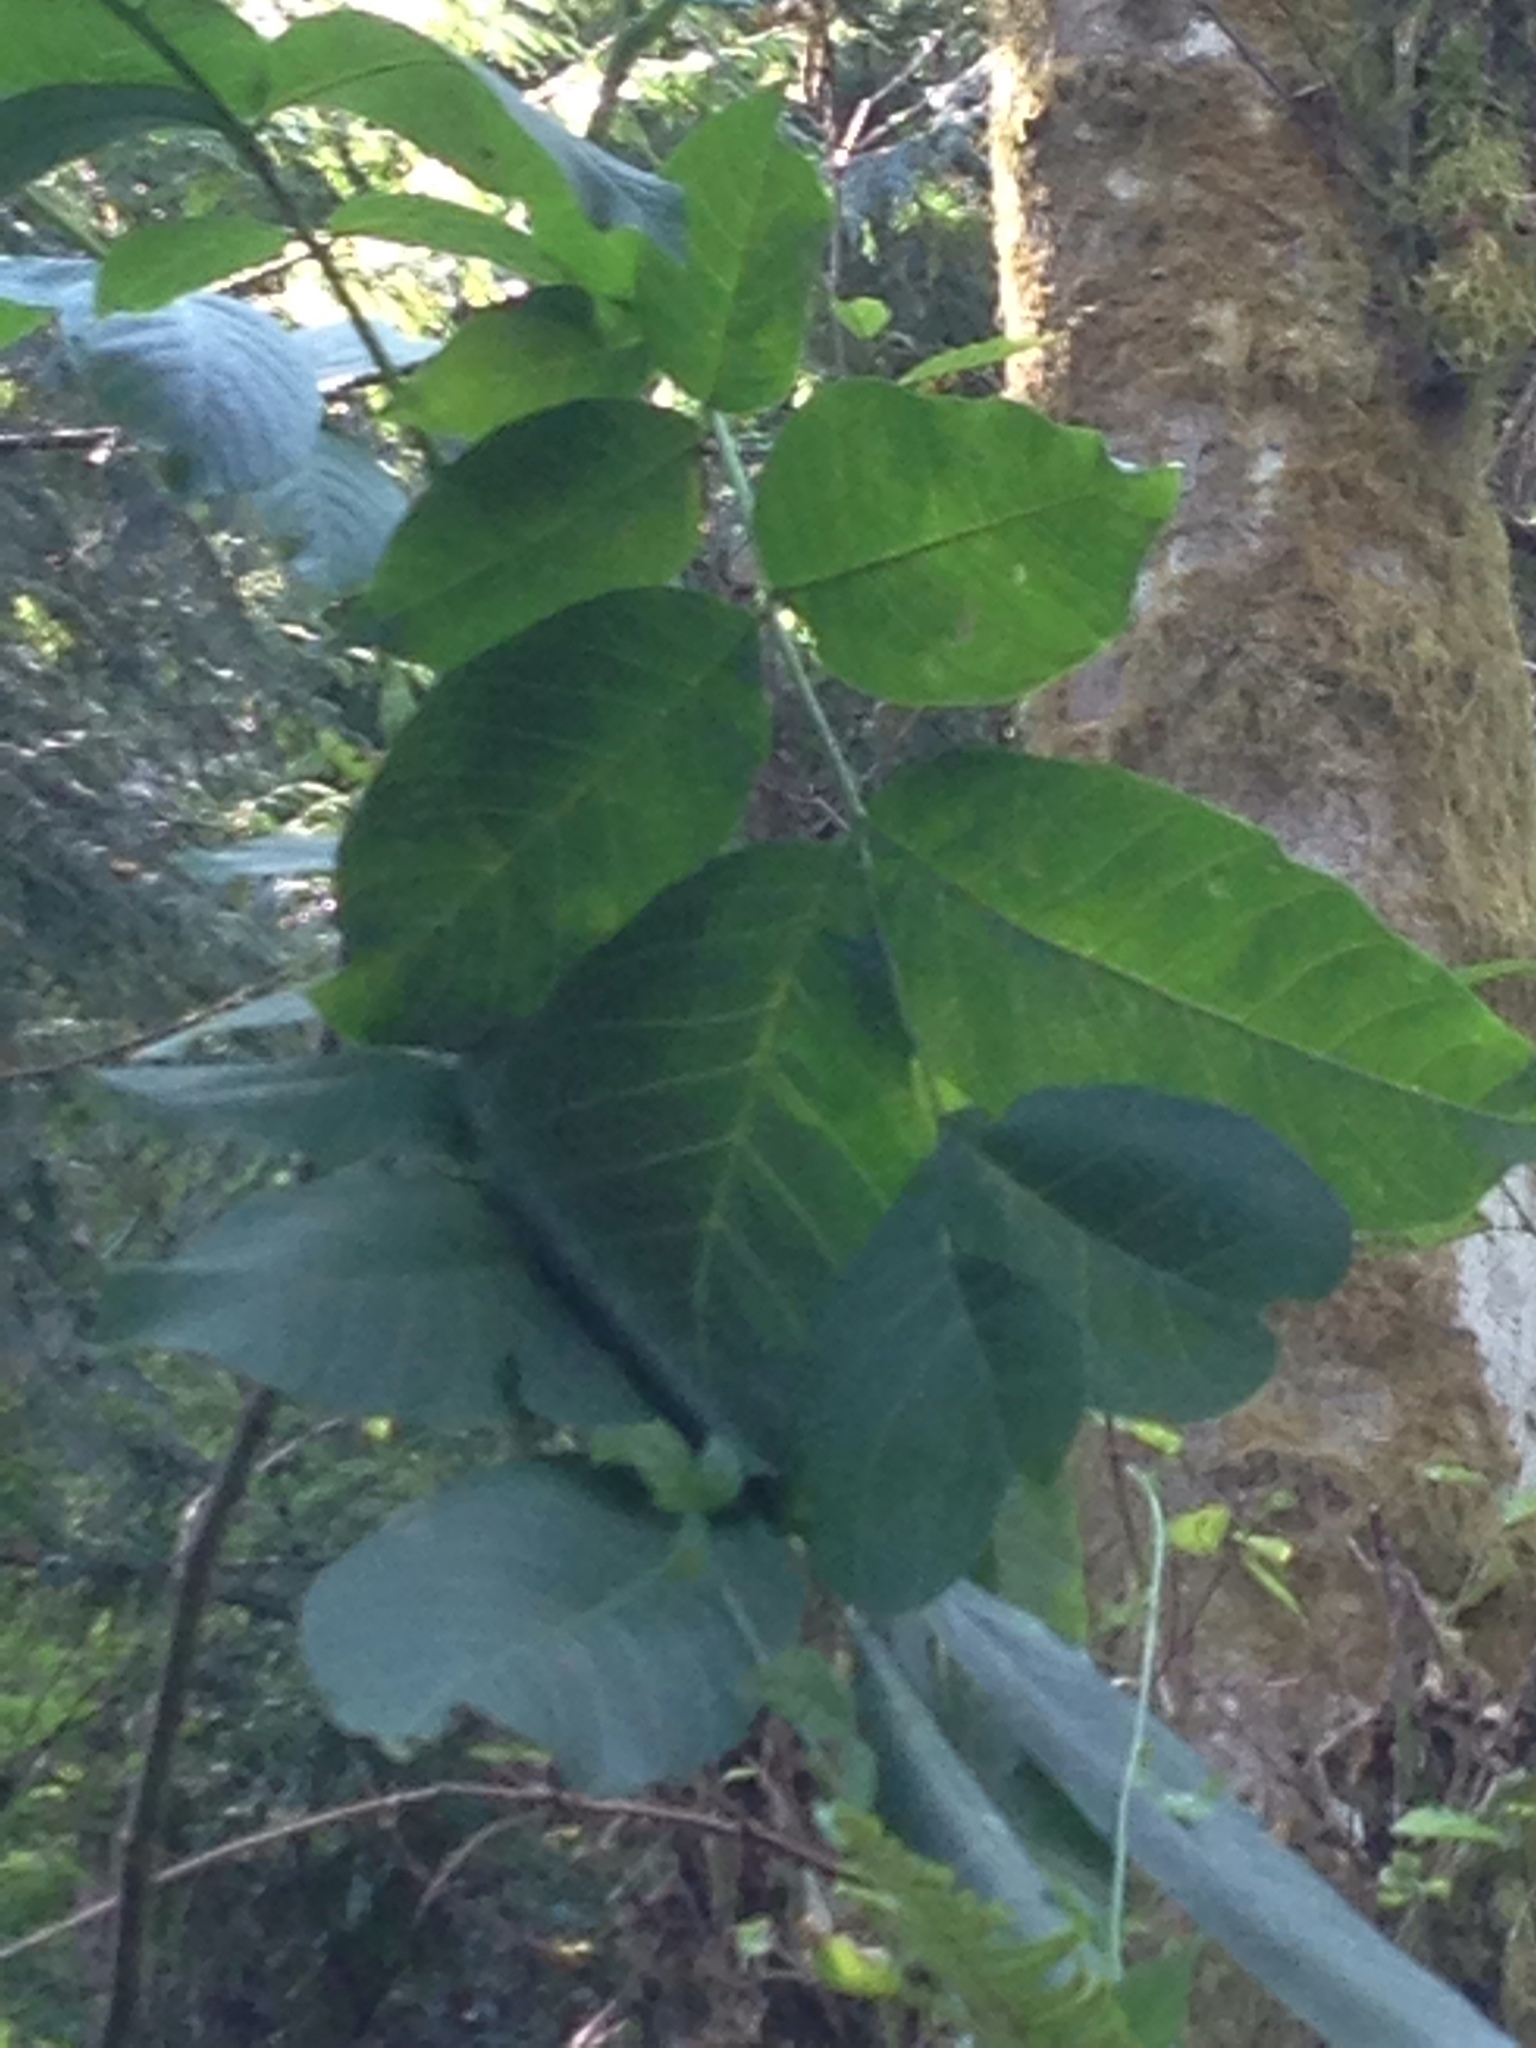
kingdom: Plantae
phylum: Tracheophyta
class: Magnoliopsida
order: Fagales
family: Juglandaceae
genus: Juglans
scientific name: Juglans regia
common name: Walnut
